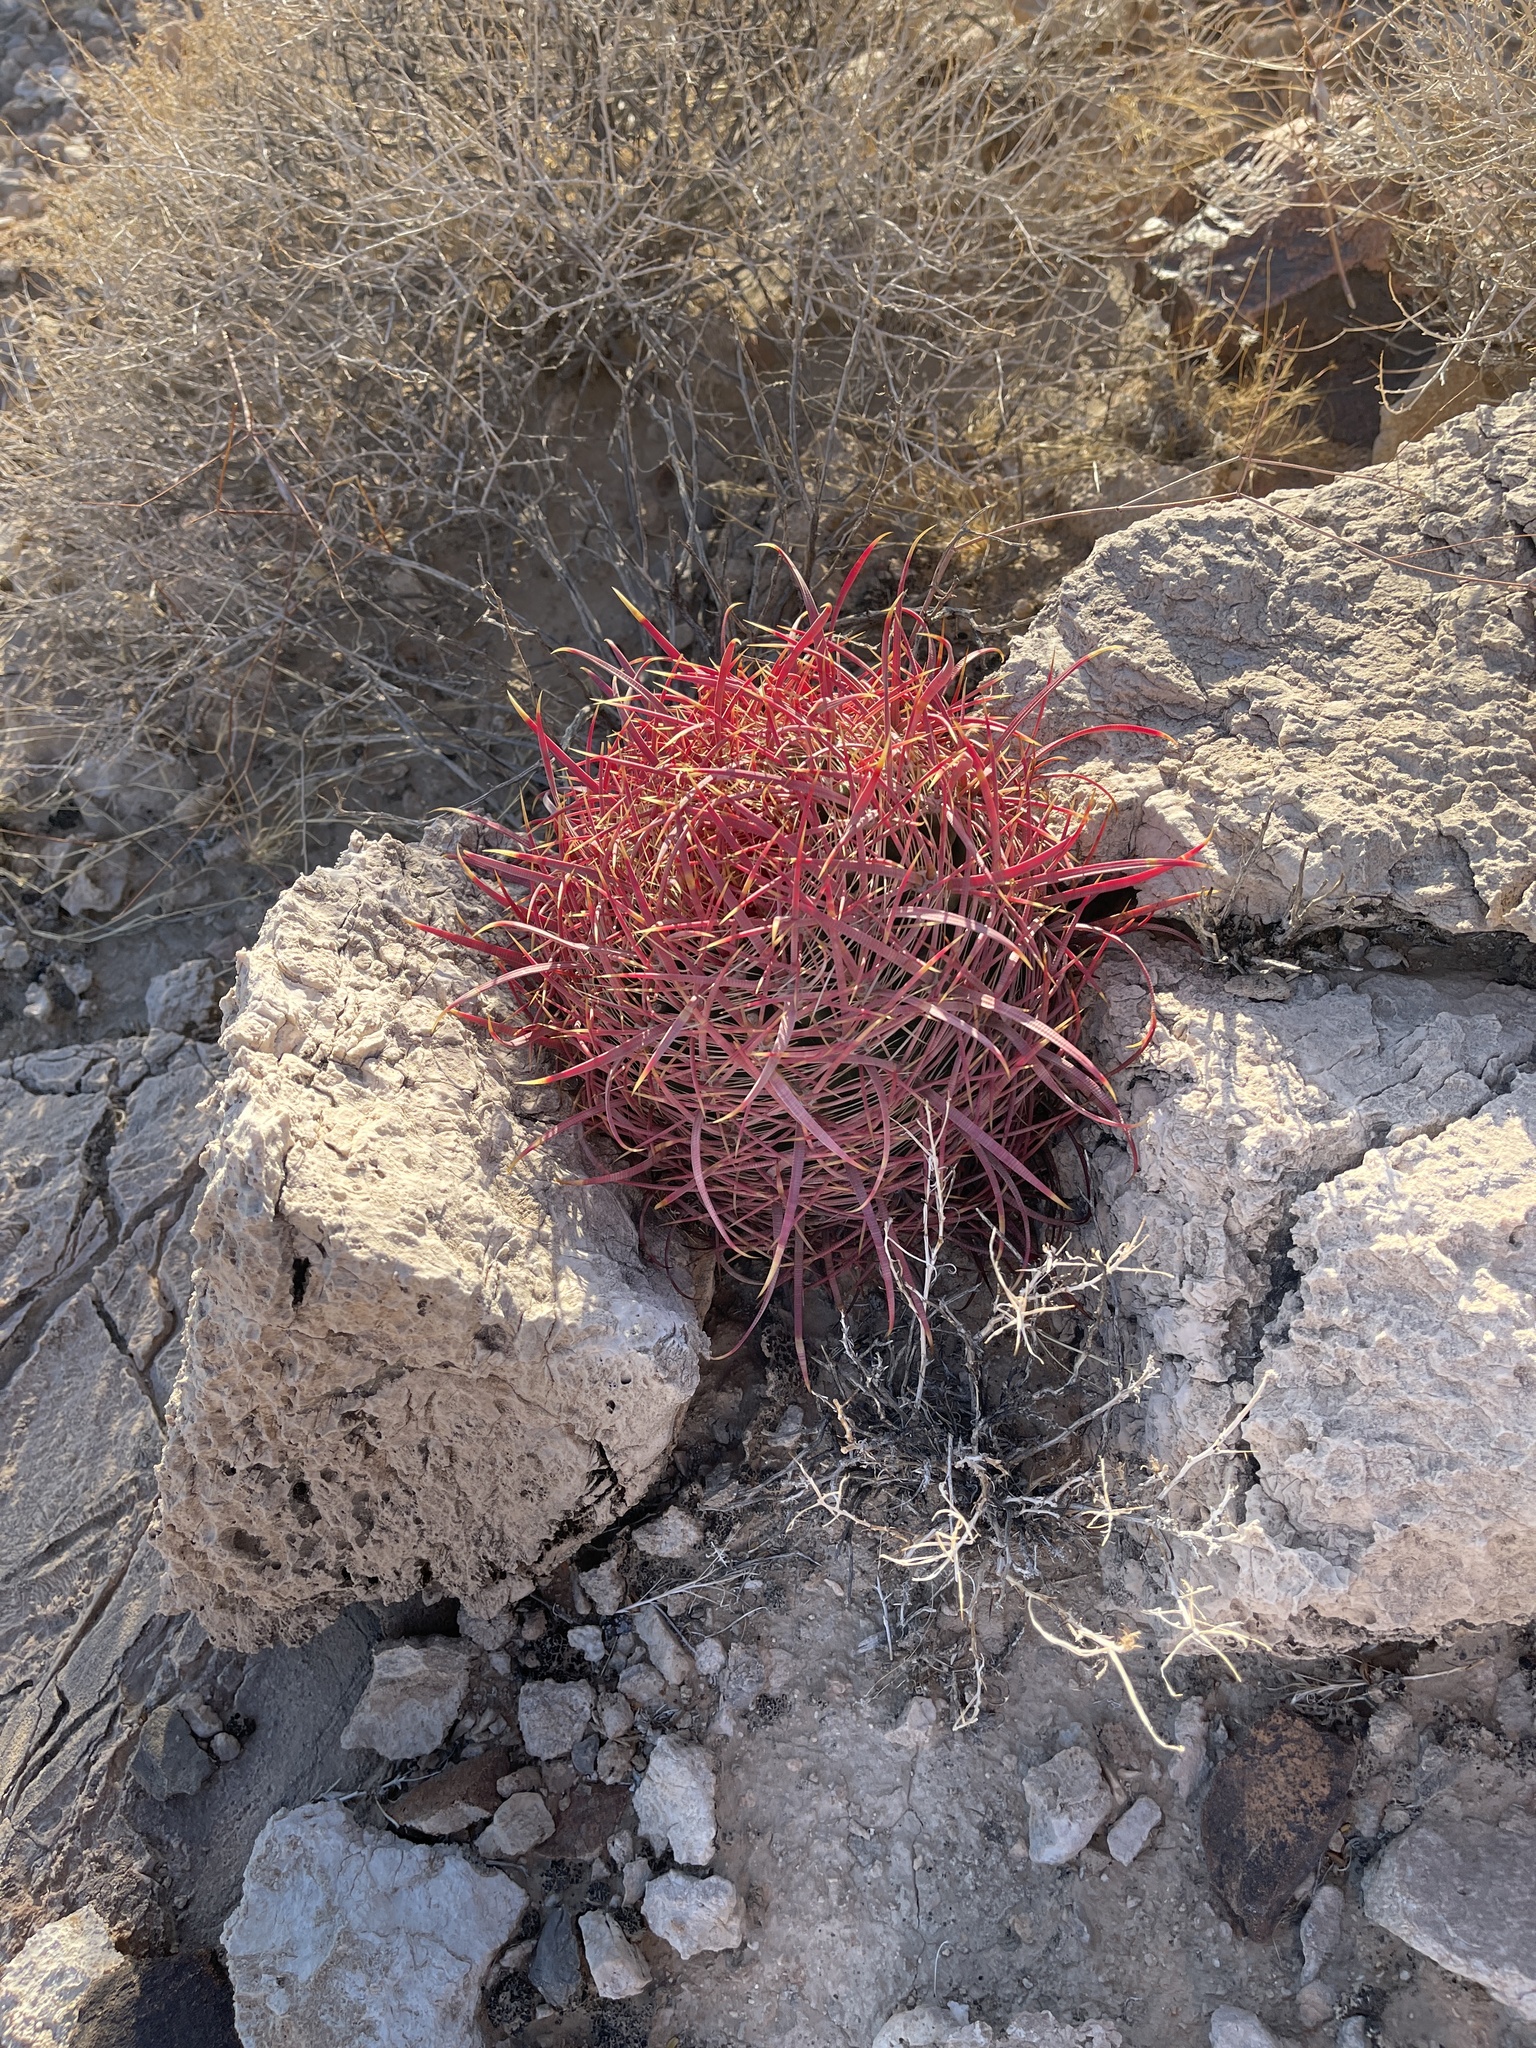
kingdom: Plantae
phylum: Tracheophyta
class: Magnoliopsida
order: Caryophyllales
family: Cactaceae
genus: Ferocactus
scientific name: Ferocactus cylindraceus
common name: California barrel cactus
